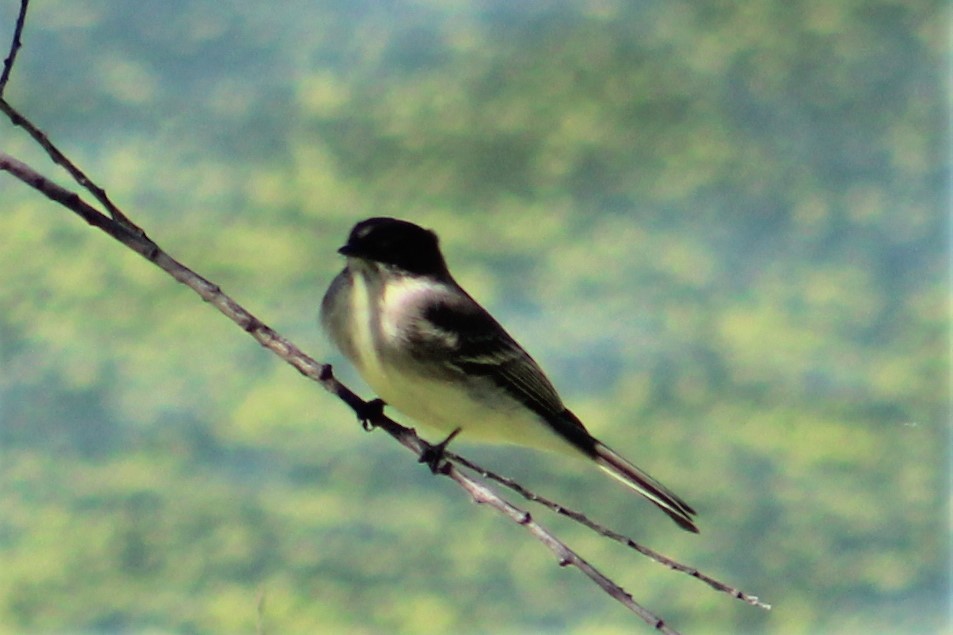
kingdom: Animalia
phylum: Chordata
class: Aves
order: Passeriformes
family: Tyrannidae
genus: Sayornis
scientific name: Sayornis phoebe
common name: Eastern phoebe
